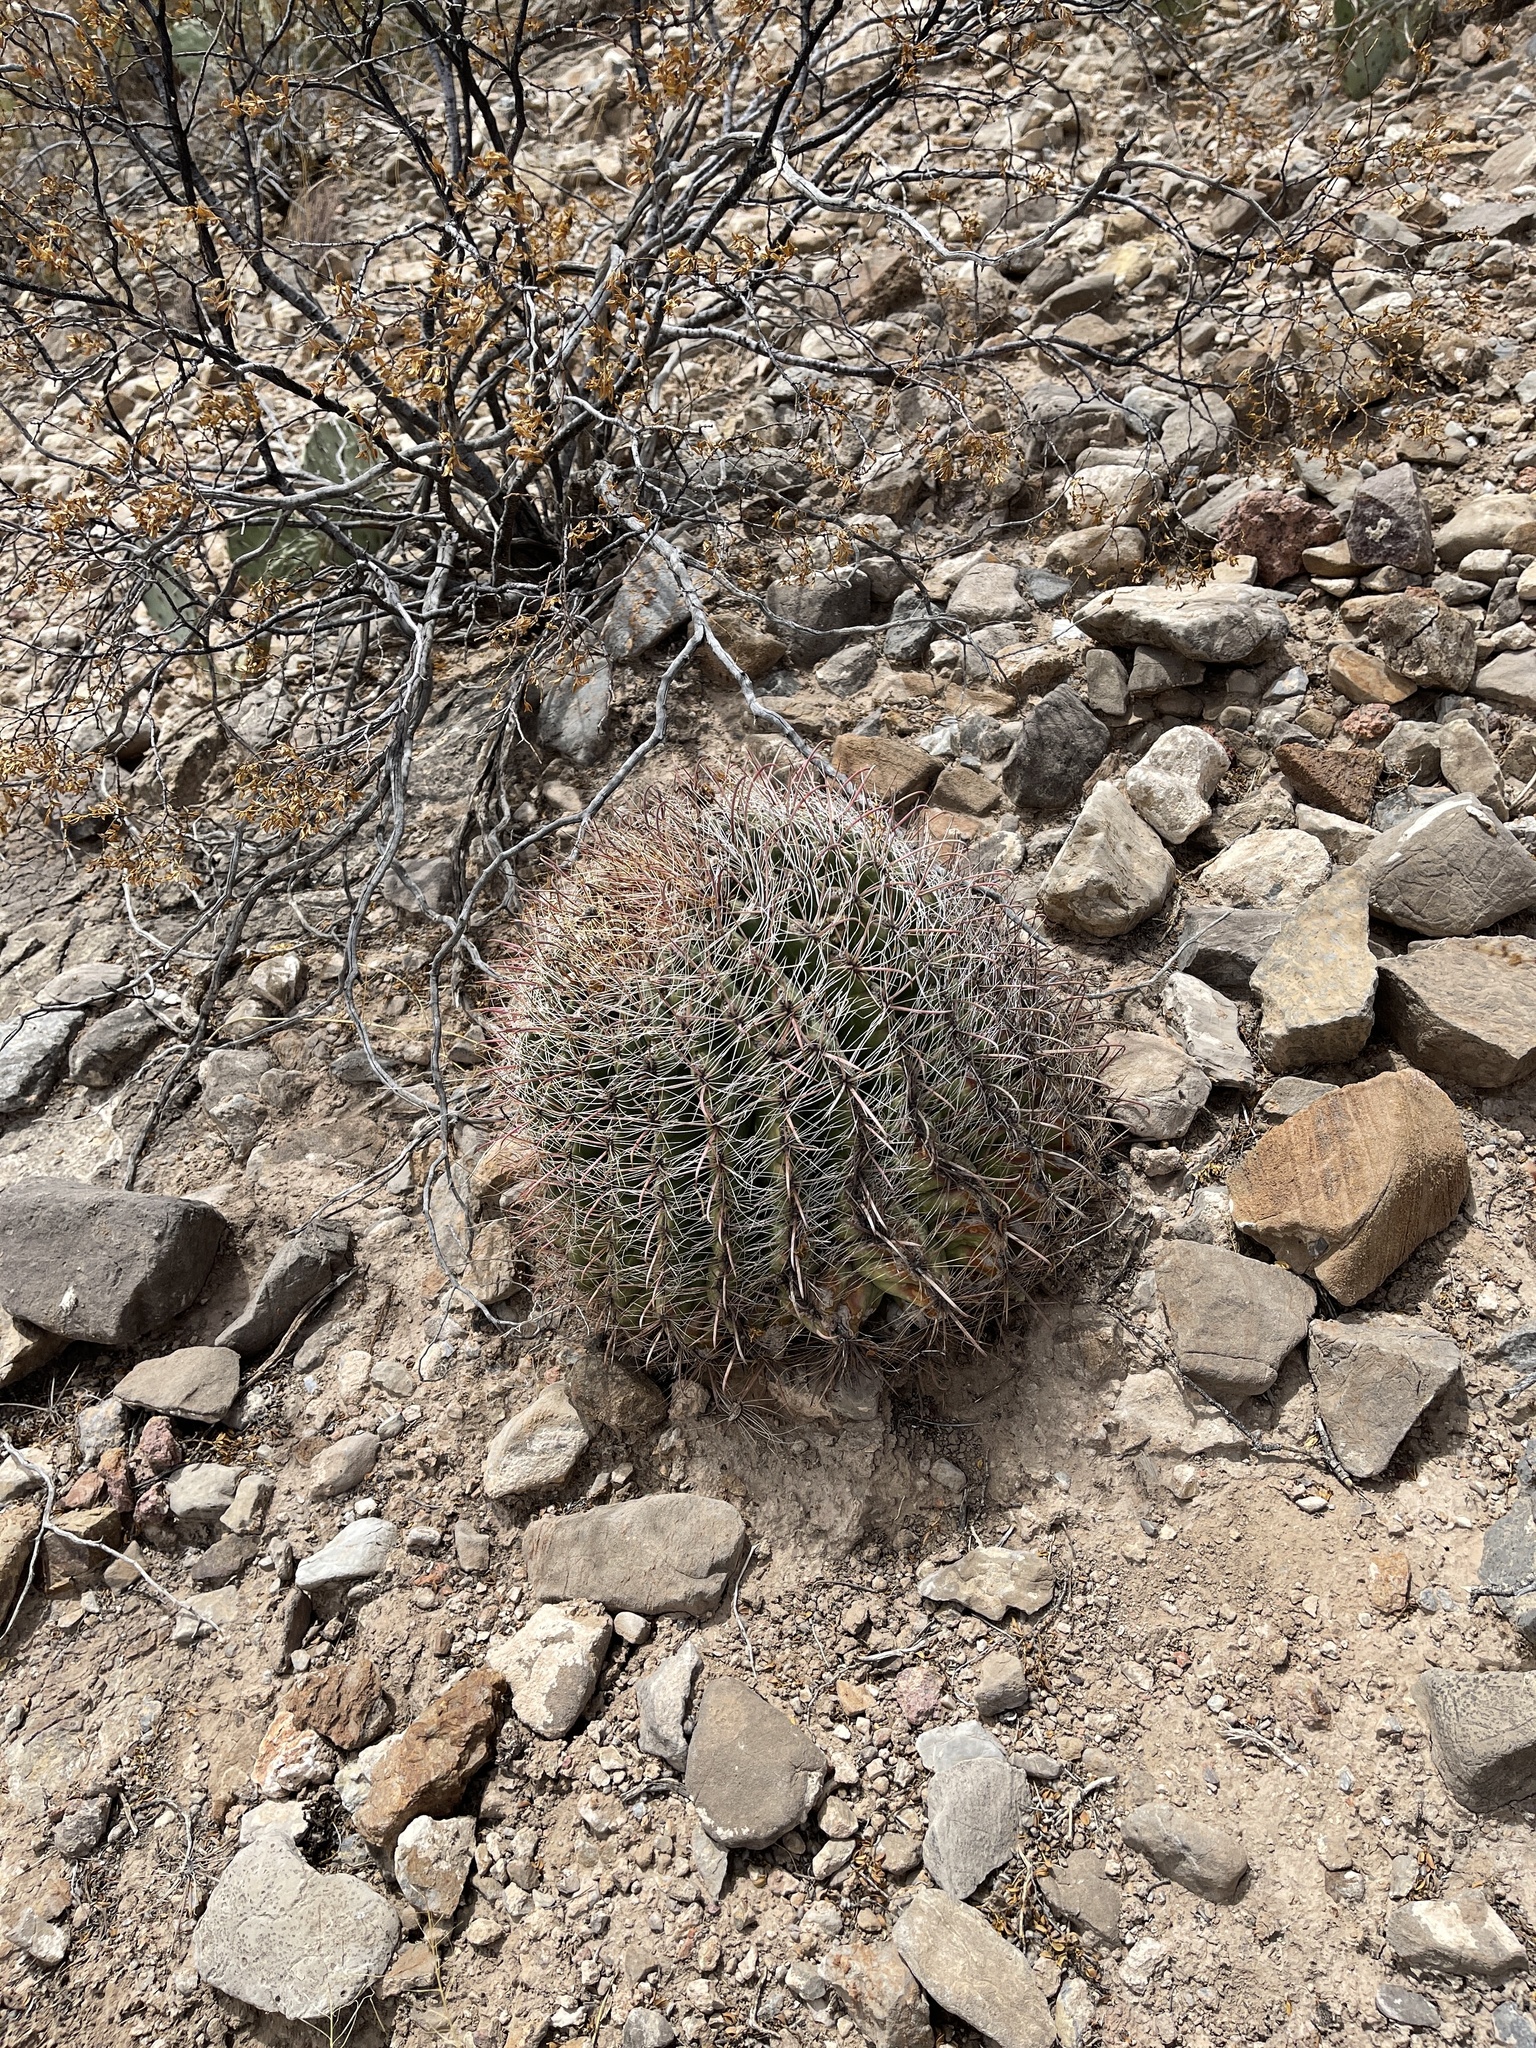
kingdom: Plantae
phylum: Tracheophyta
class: Magnoliopsida
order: Caryophyllales
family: Cactaceae
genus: Ferocactus
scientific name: Ferocactus wislizeni
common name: Candy barrel cactus
